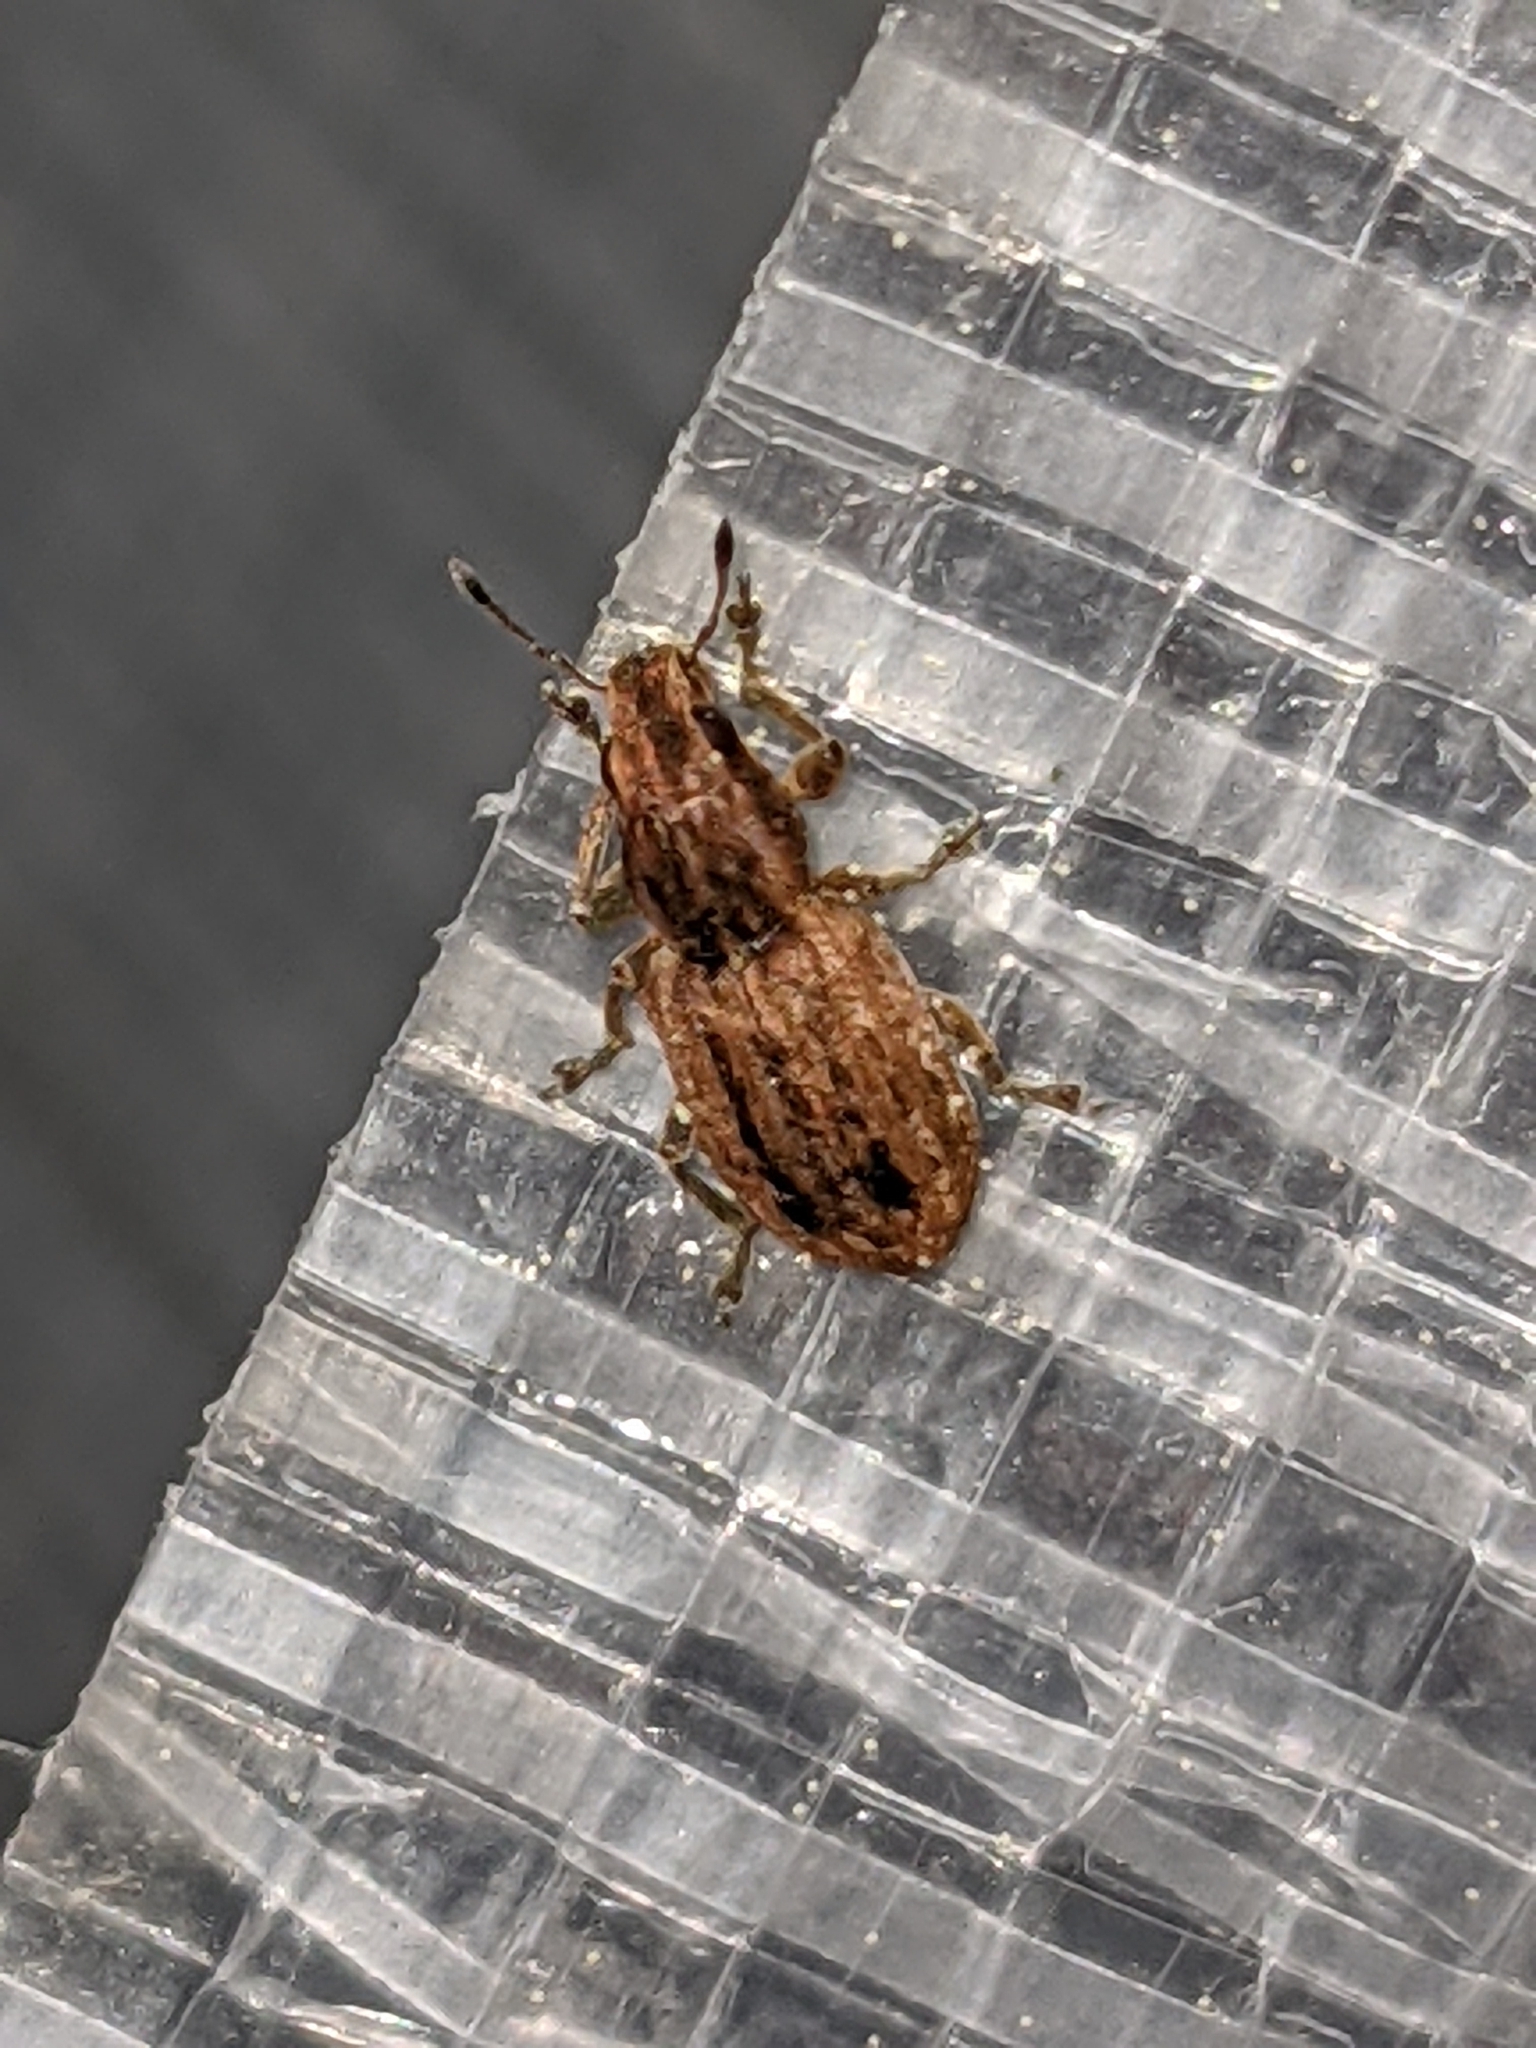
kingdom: Animalia
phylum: Arthropoda
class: Insecta
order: Coleoptera
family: Curculionidae
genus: Sitona
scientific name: Sitona obsoletus
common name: Weevil
